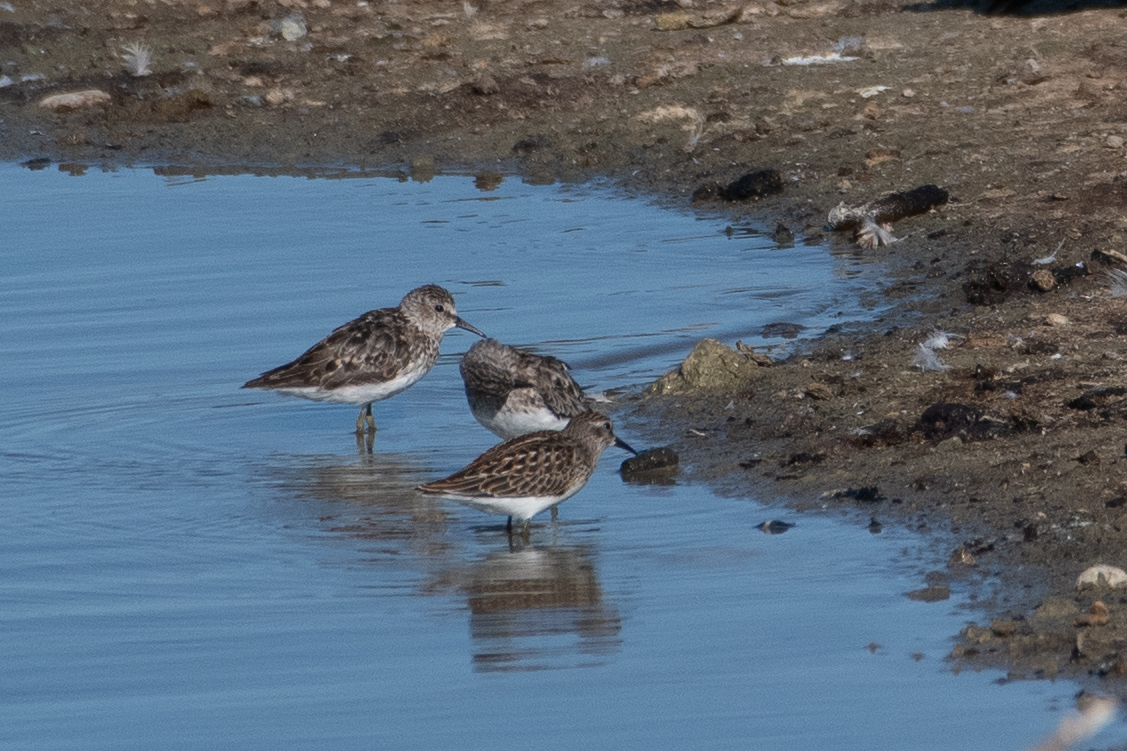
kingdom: Animalia
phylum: Chordata
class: Aves
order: Charadriiformes
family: Scolopacidae
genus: Calidris
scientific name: Calidris minutilla
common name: Least sandpiper
